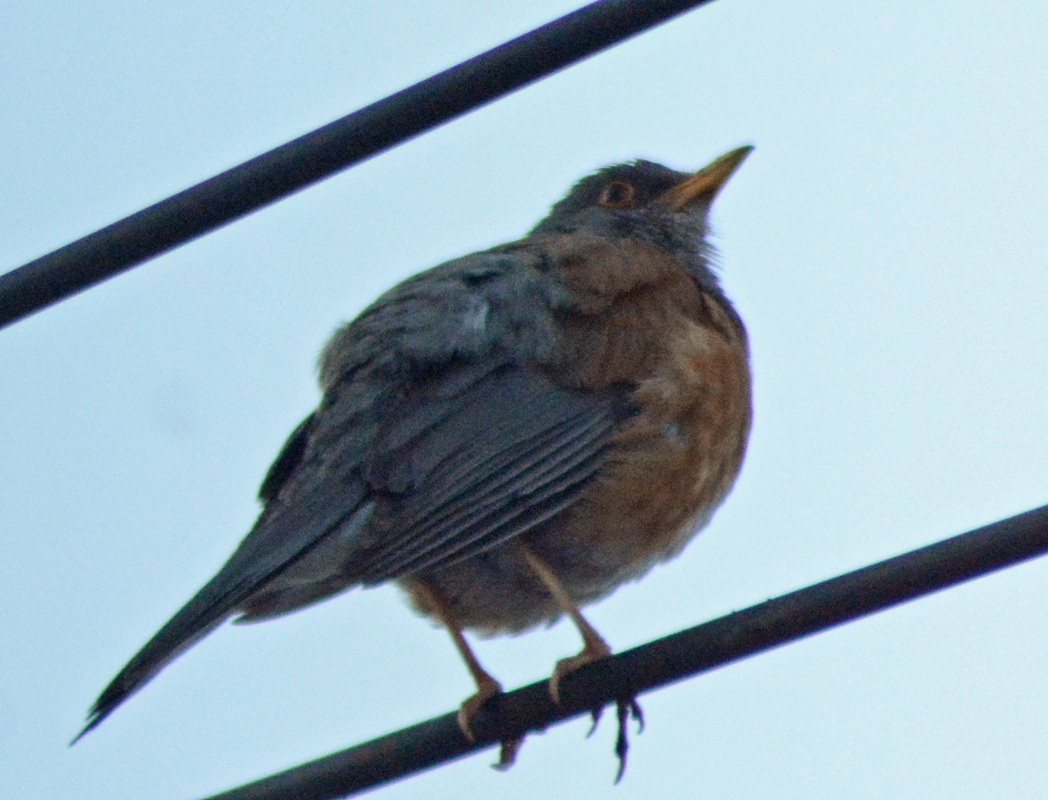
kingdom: Animalia
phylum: Chordata
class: Aves
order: Passeriformes
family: Turdidae
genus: Turdus
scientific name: Turdus rufopalliatus
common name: Rufous-backed robin
